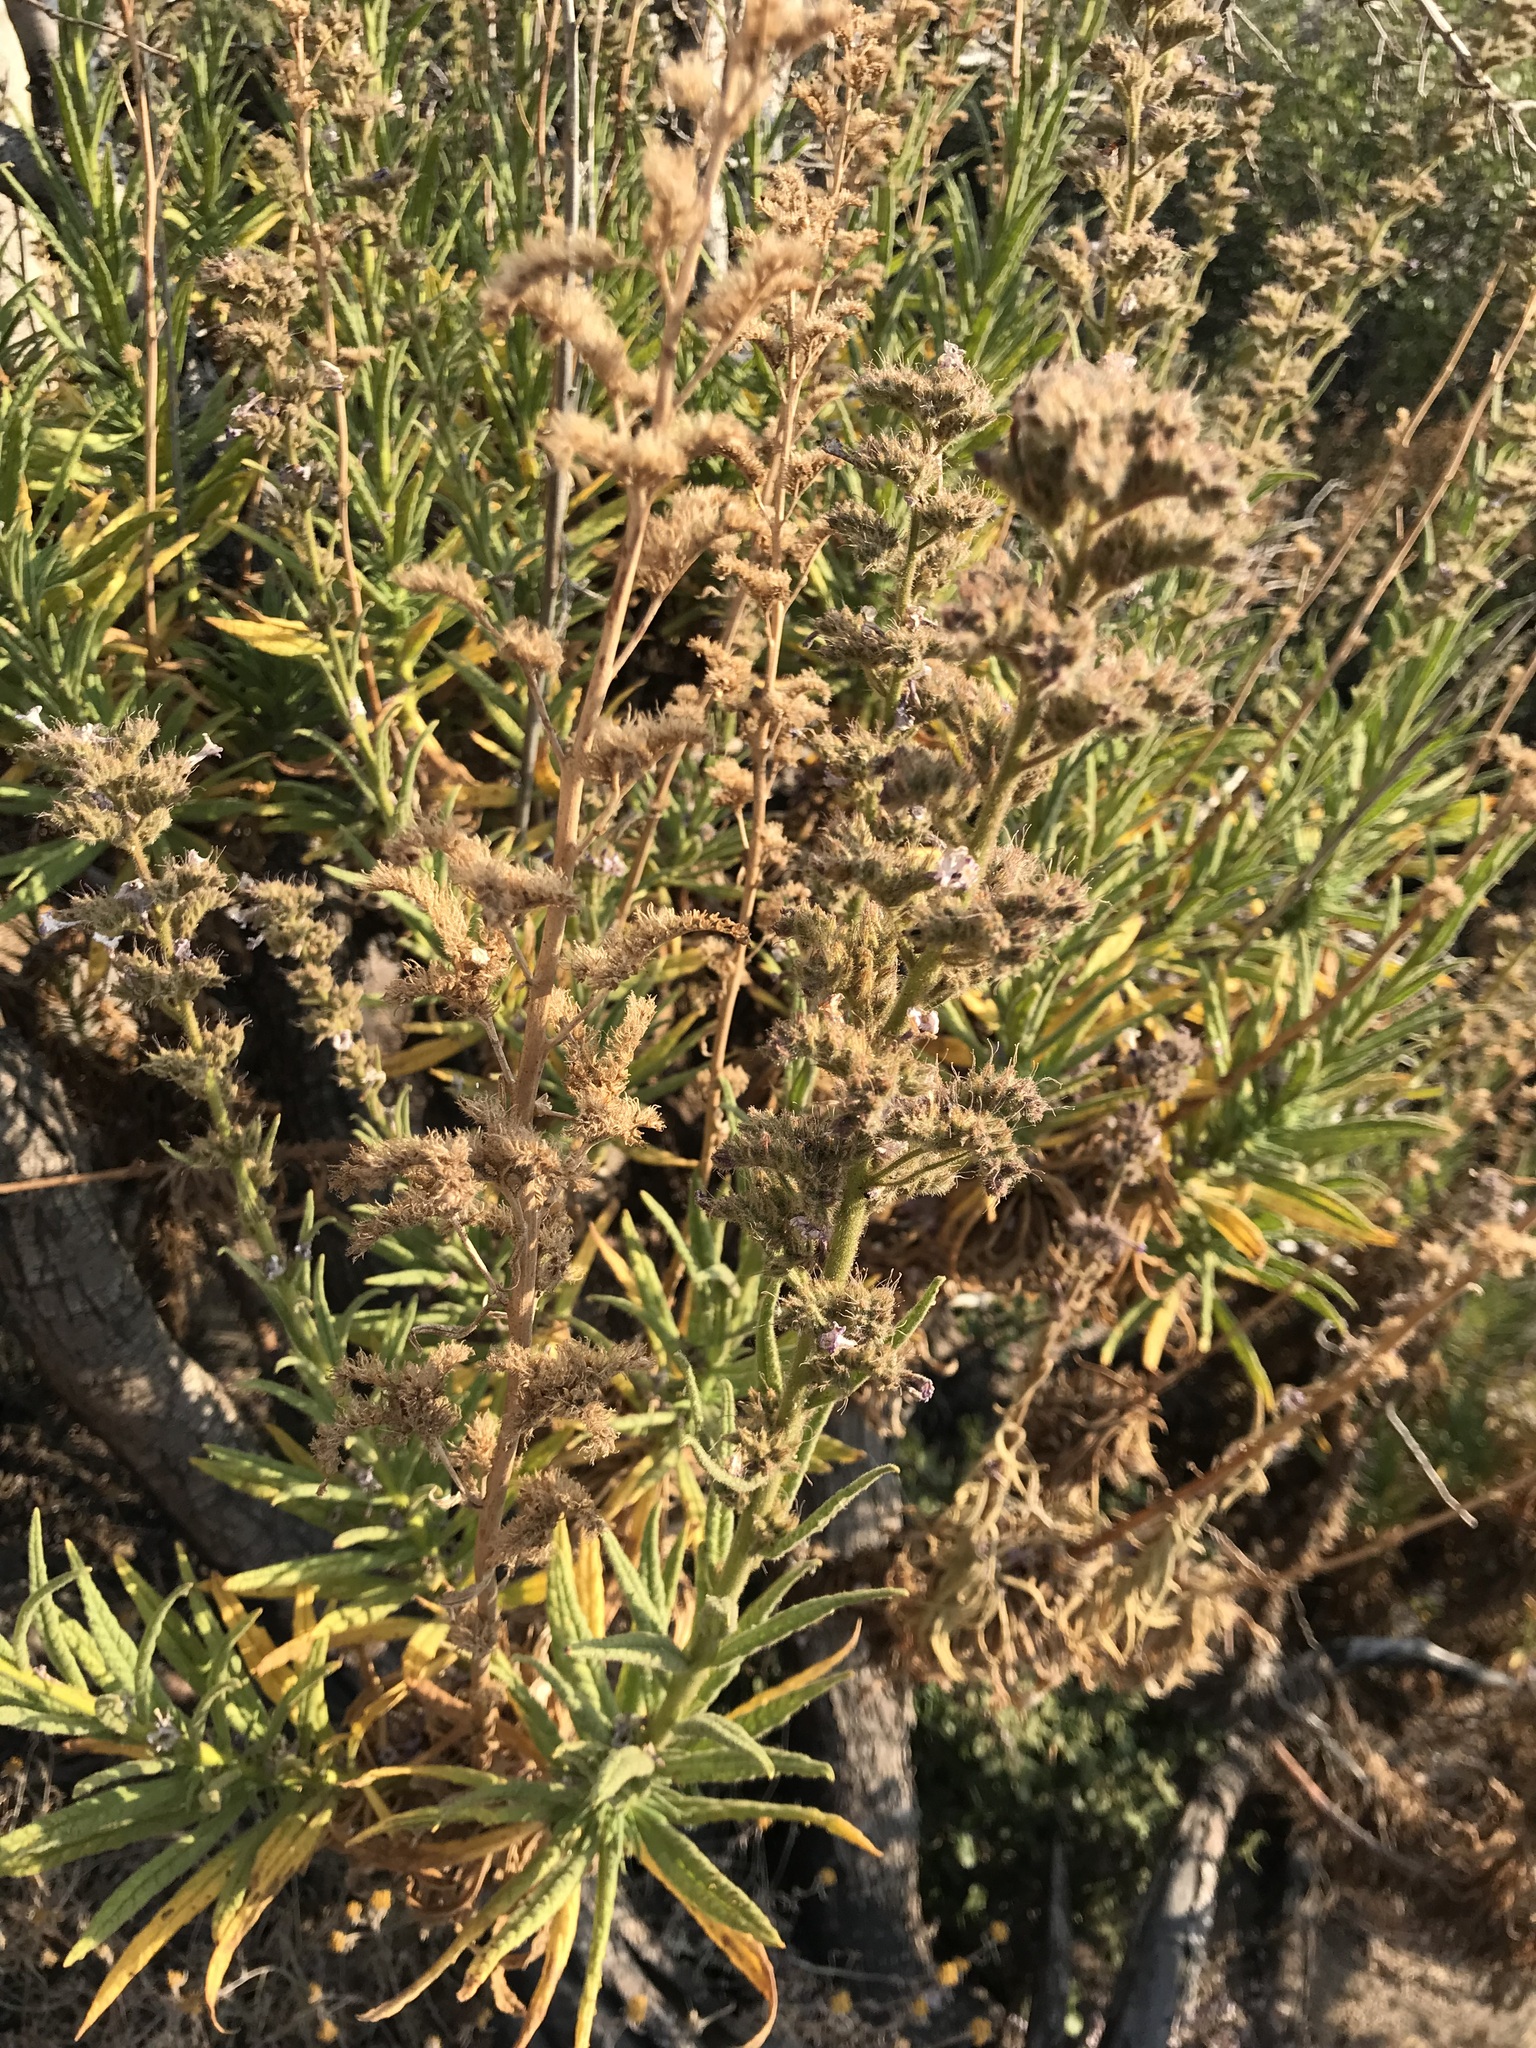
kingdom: Plantae
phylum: Tracheophyta
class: Magnoliopsida
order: Boraginales
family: Namaceae
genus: Turricula
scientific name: Turricula parryi
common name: Poodle-dog-bush
